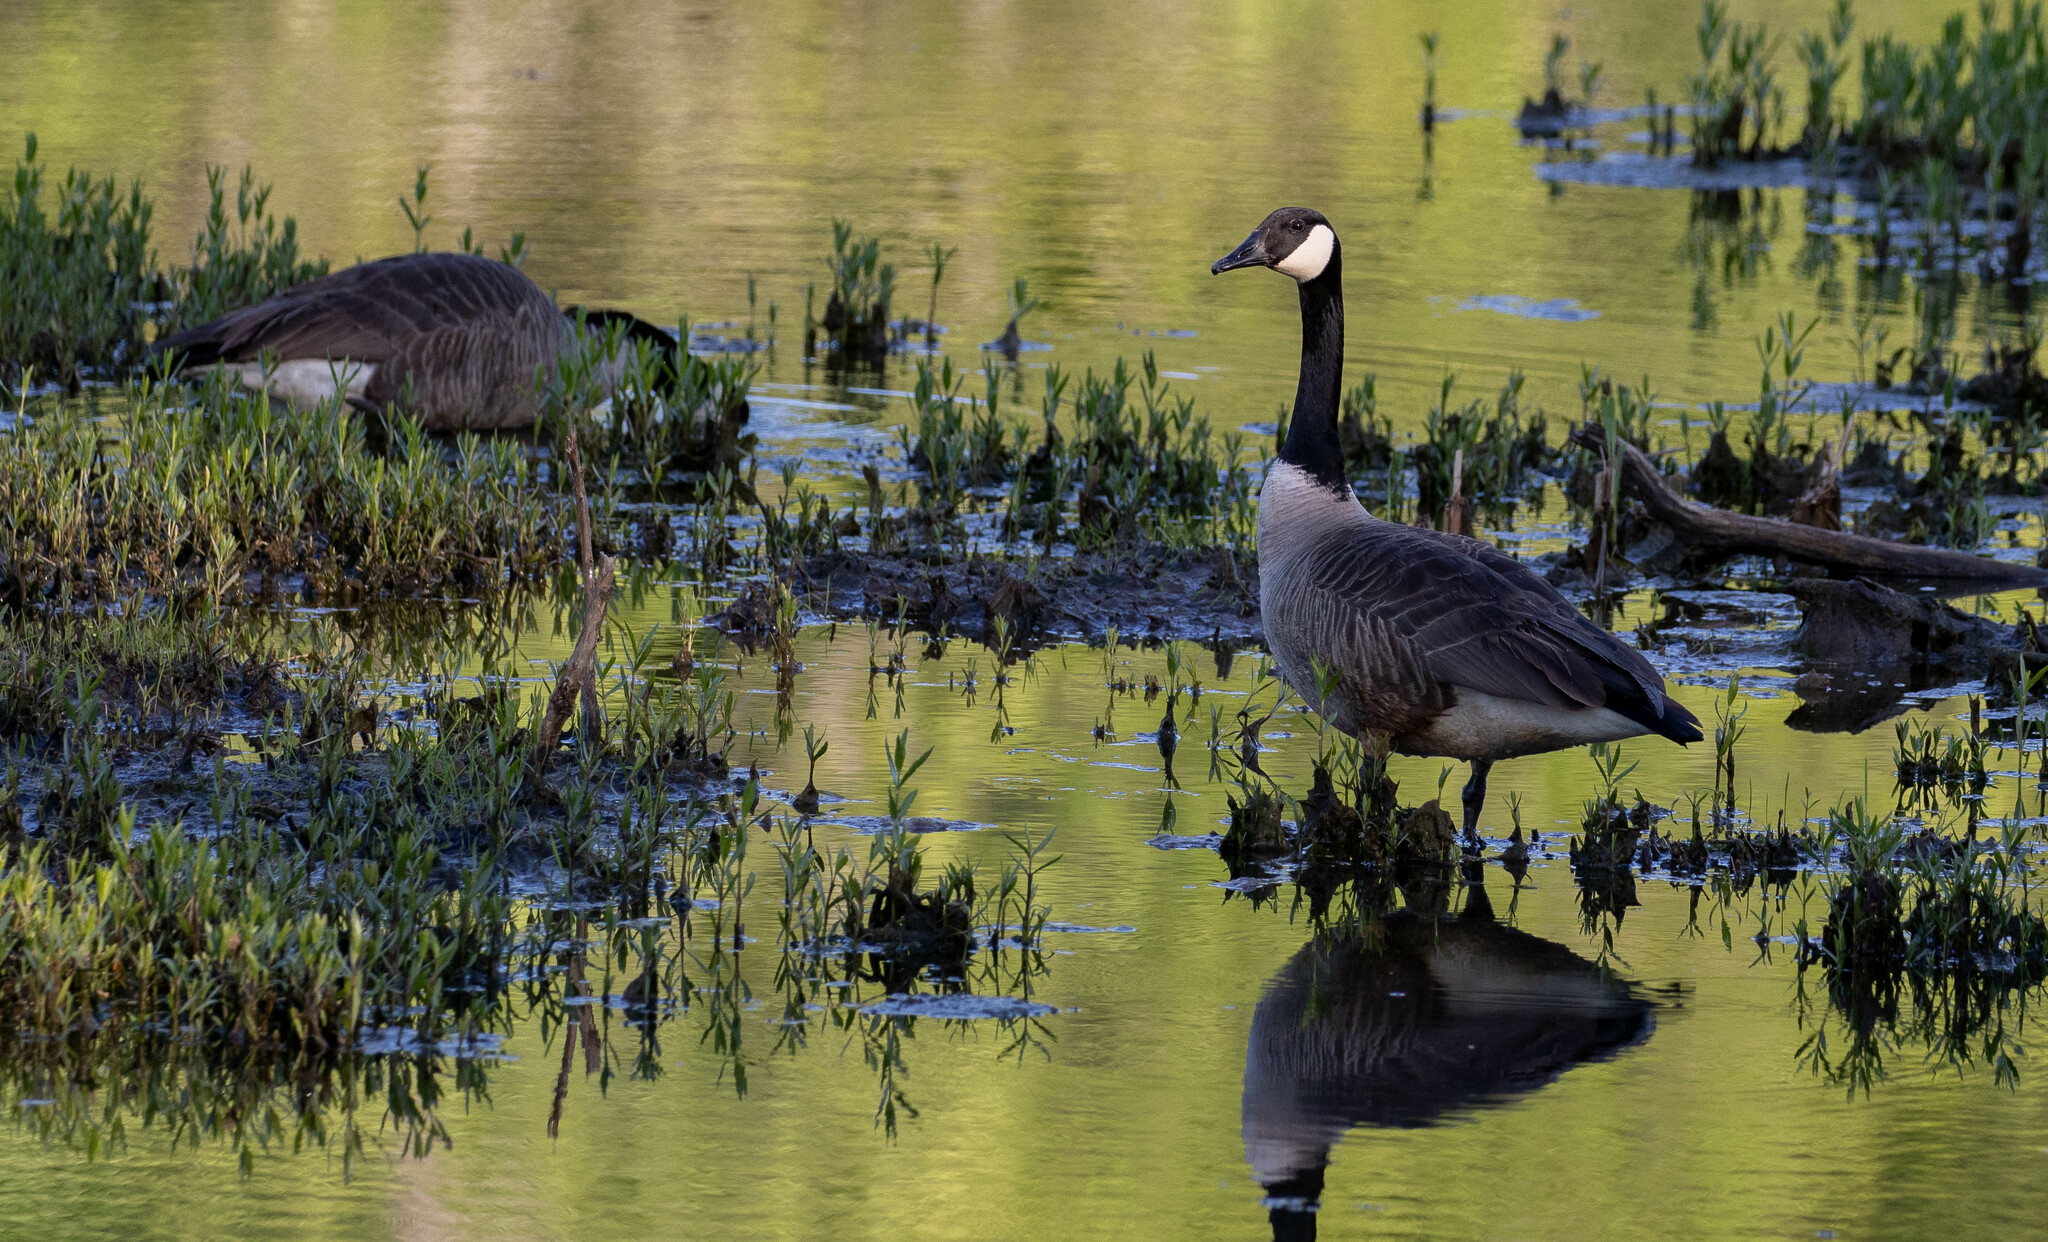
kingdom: Animalia
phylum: Chordata
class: Aves
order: Anseriformes
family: Anatidae
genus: Branta
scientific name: Branta canadensis
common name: Canada goose
